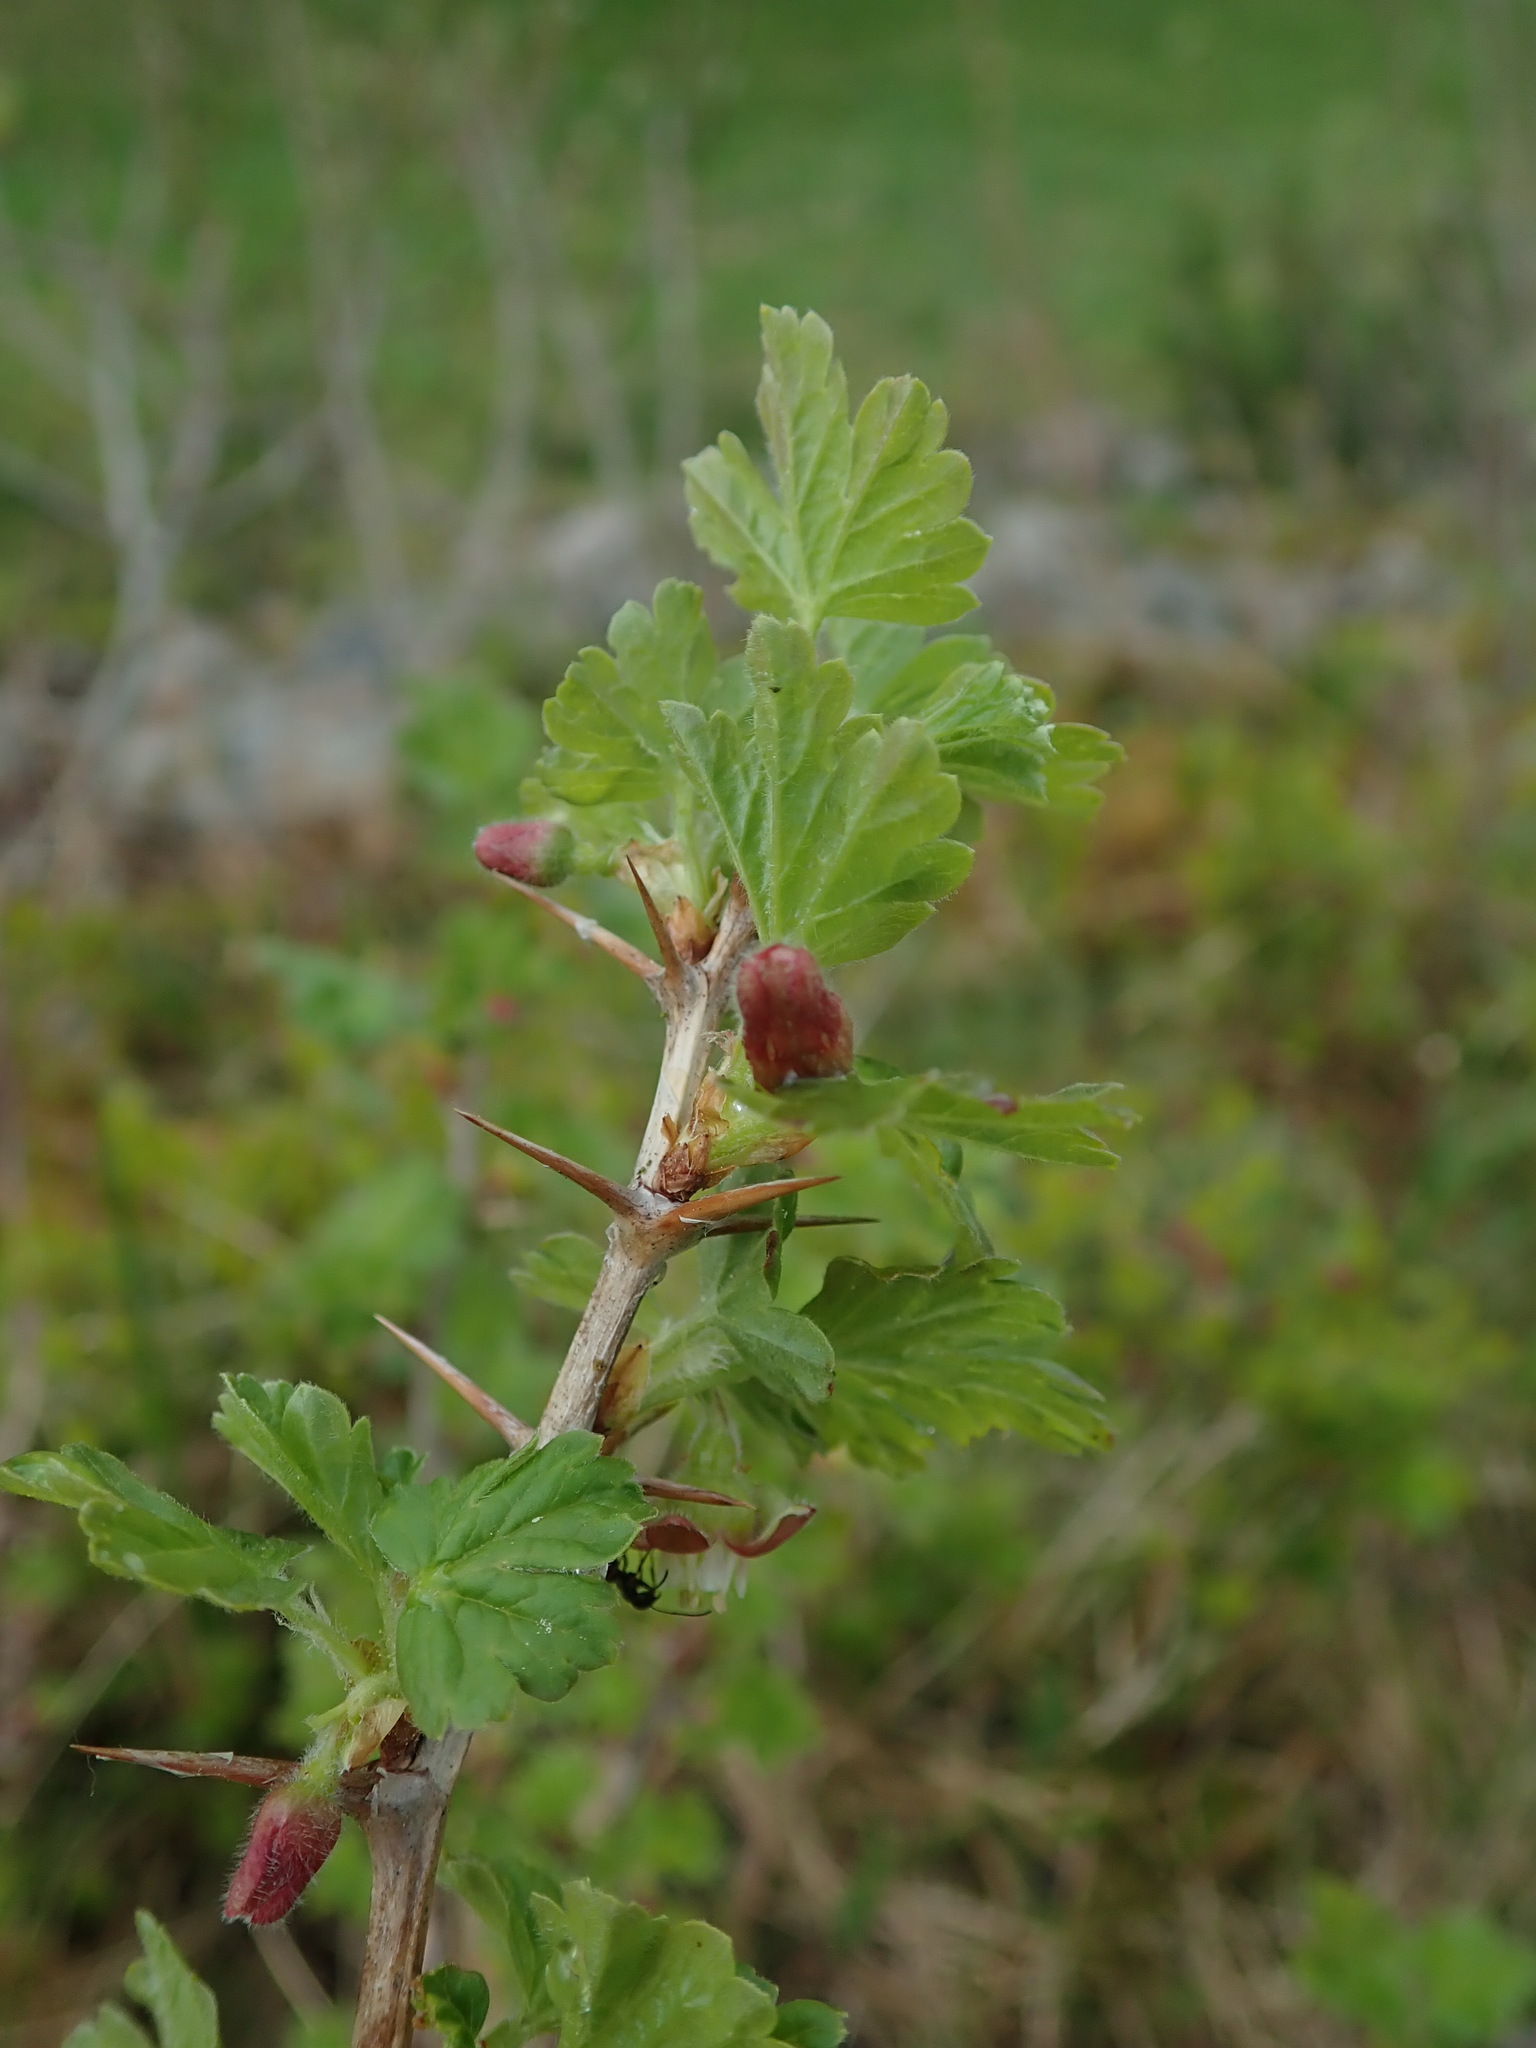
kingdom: Plantae
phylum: Tracheophyta
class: Magnoliopsida
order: Saxifragales
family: Grossulariaceae
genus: Ribes
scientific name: Ribes uva-crispa
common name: Gooseberry
